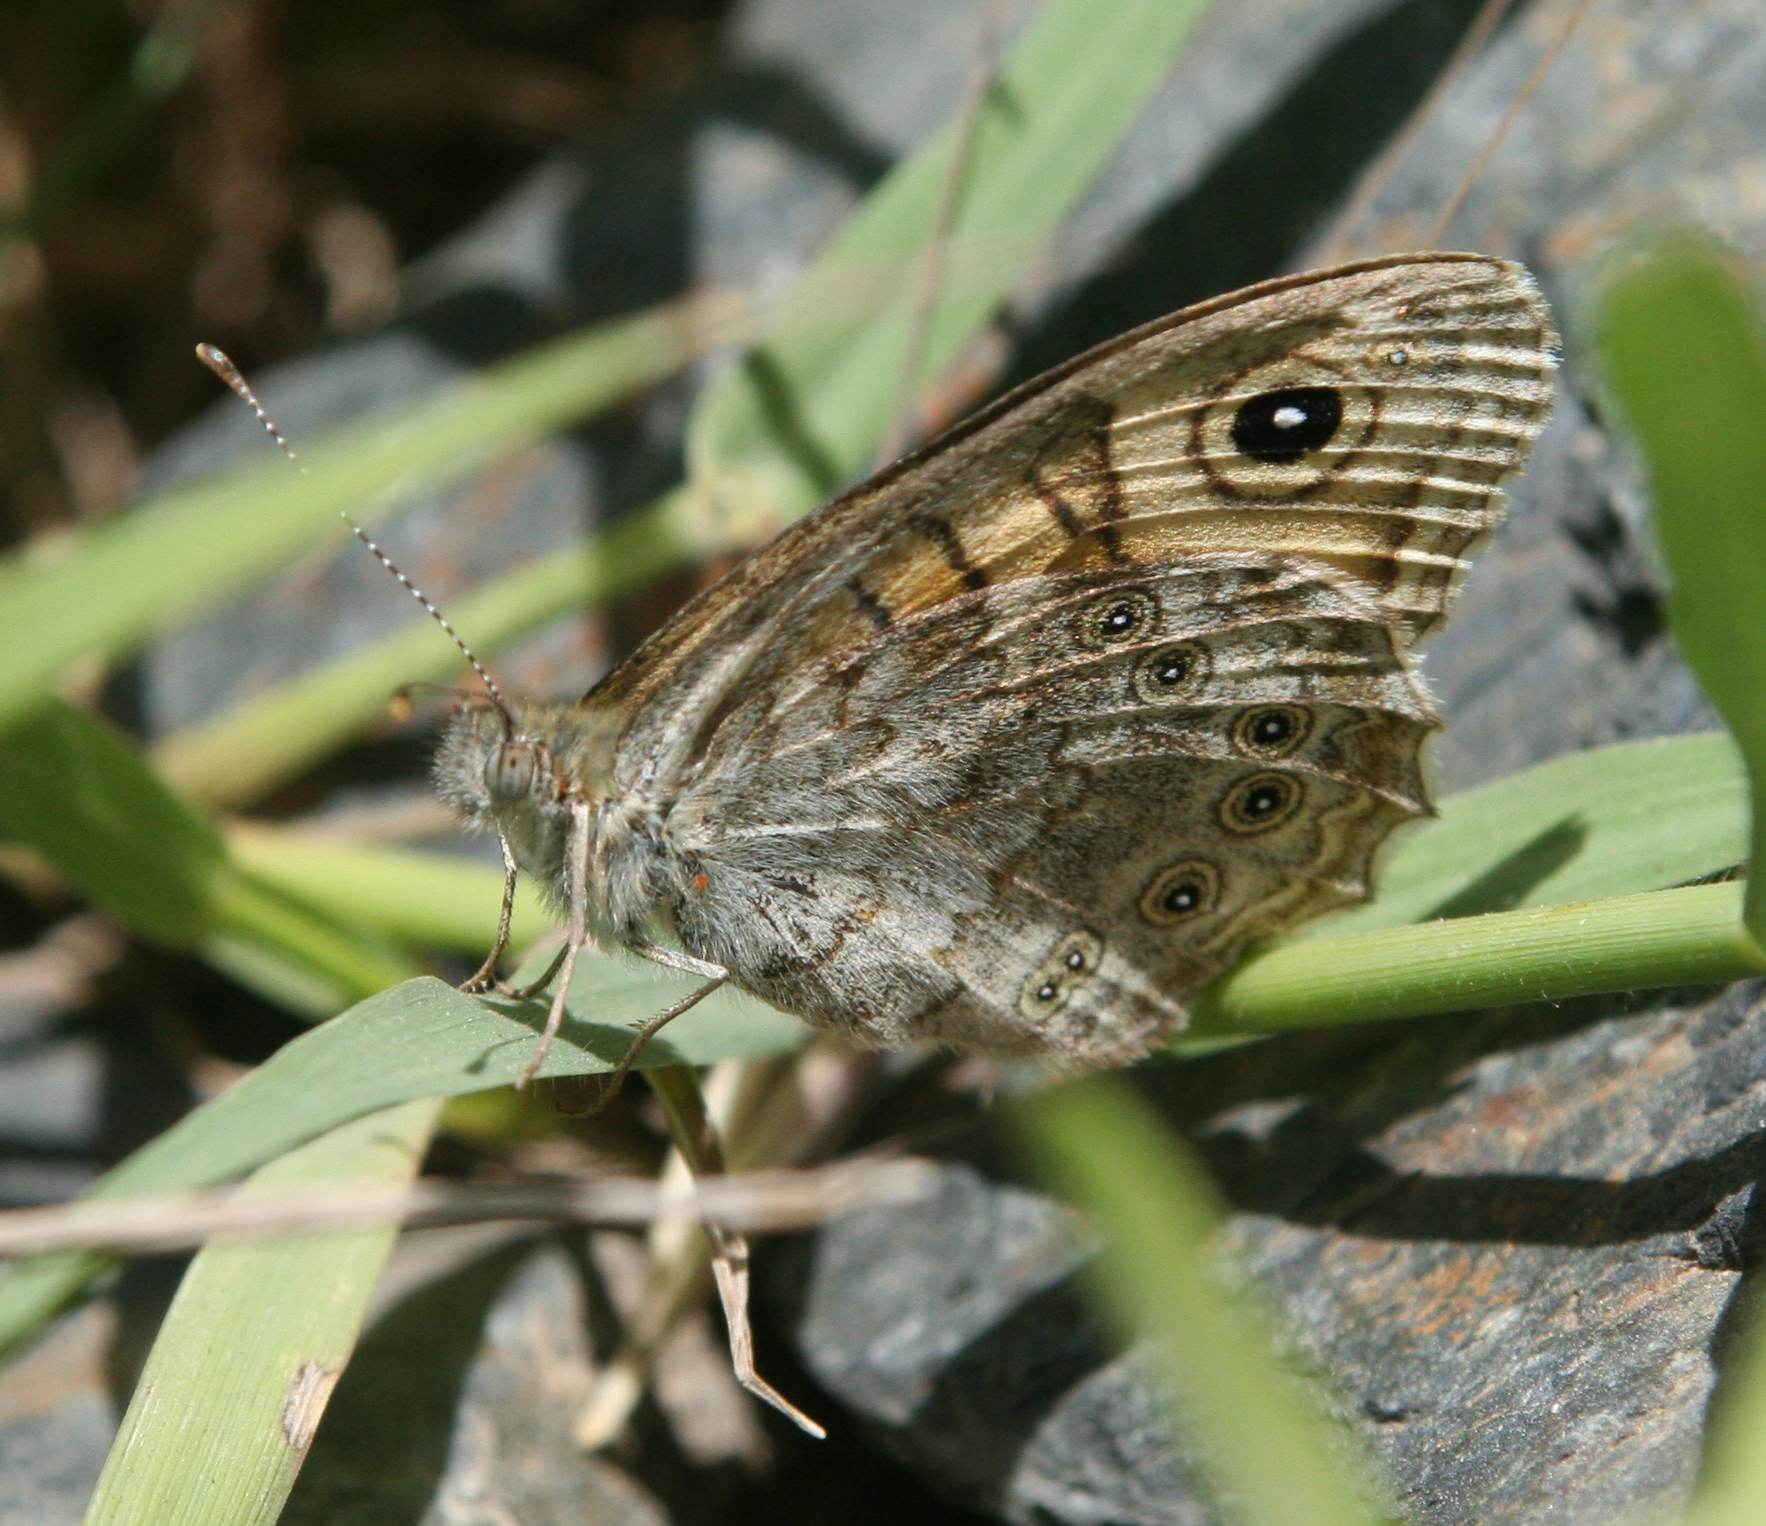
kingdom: Animalia
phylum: Arthropoda
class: Insecta
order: Lepidoptera
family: Nymphalidae
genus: Pararge
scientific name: Pararge Lasiommata megera
